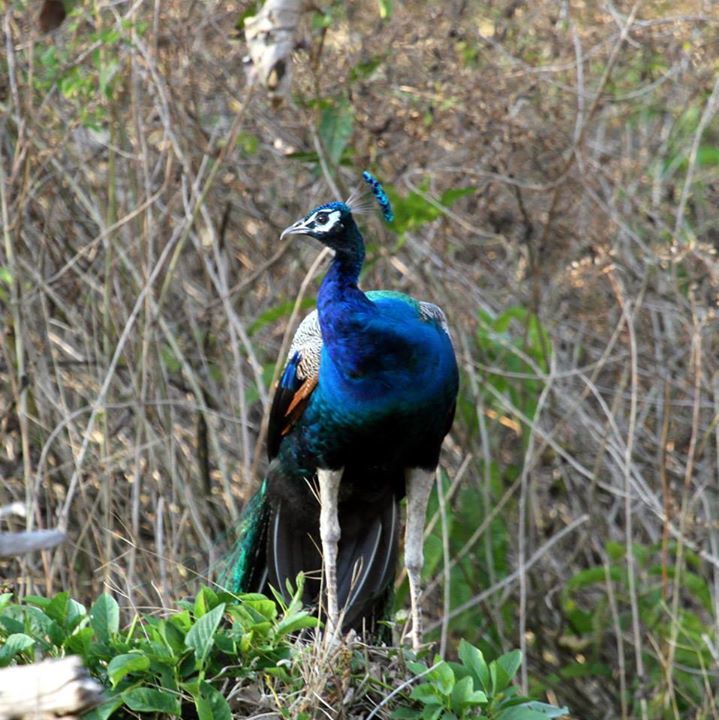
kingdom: Animalia
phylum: Chordata
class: Aves
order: Galliformes
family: Phasianidae
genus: Pavo
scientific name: Pavo cristatus
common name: Indian peafowl
